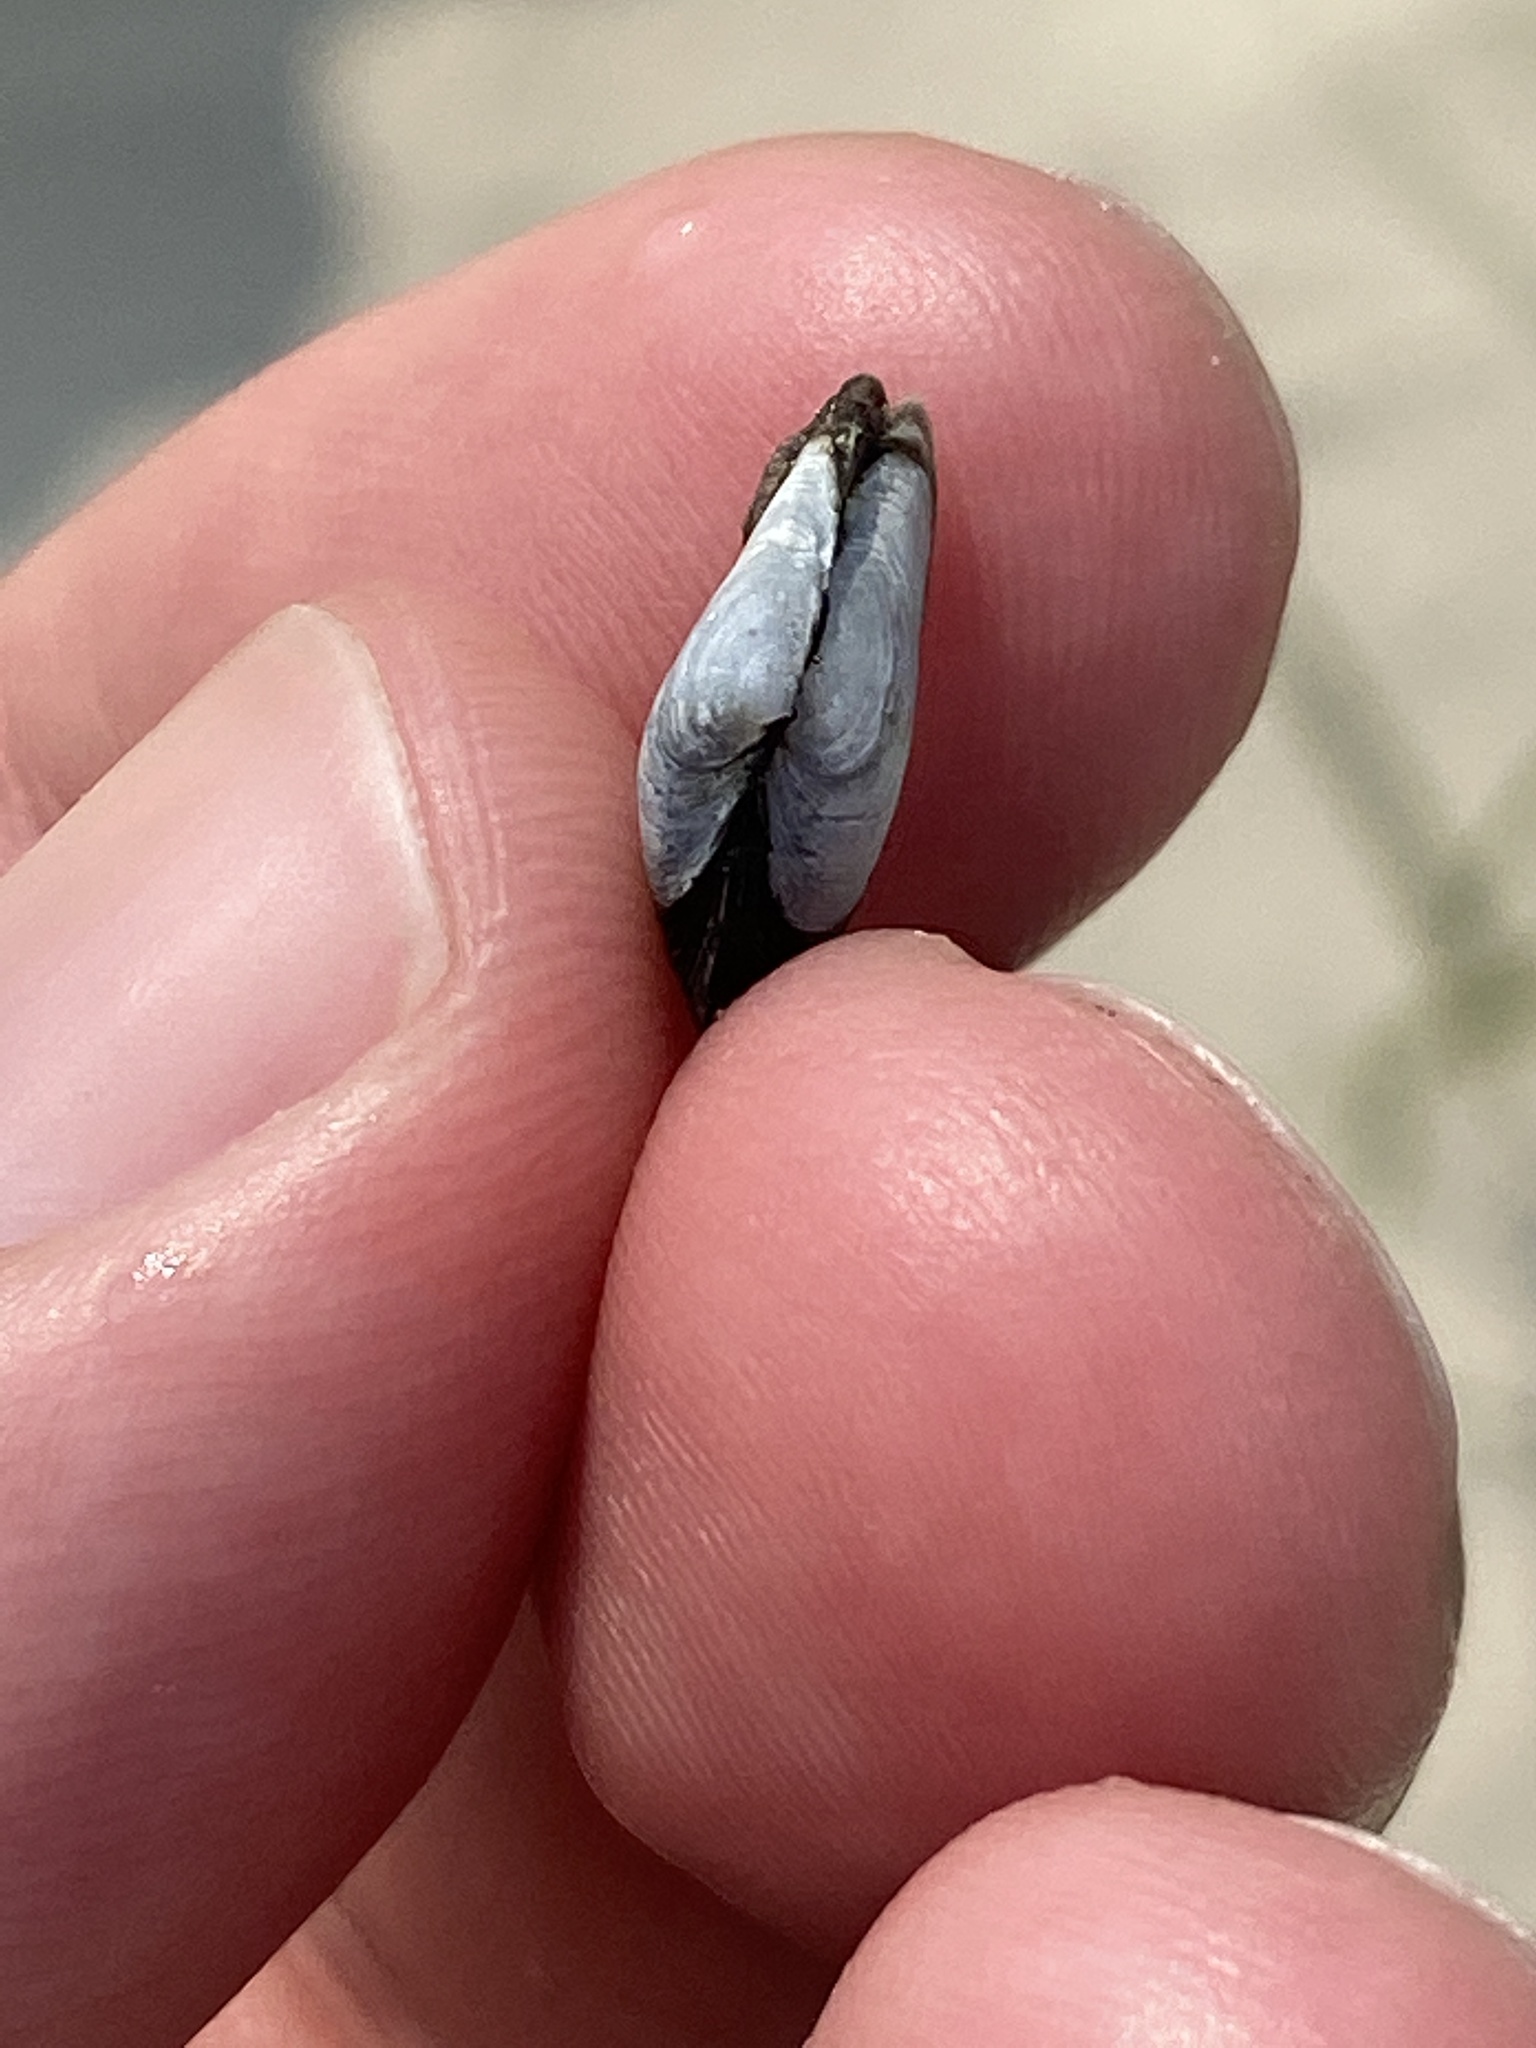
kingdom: Animalia
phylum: Mollusca
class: Bivalvia
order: Cardiida
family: Tellinidae
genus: Macoma
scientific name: Macoma balthica
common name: Baltic tellin
